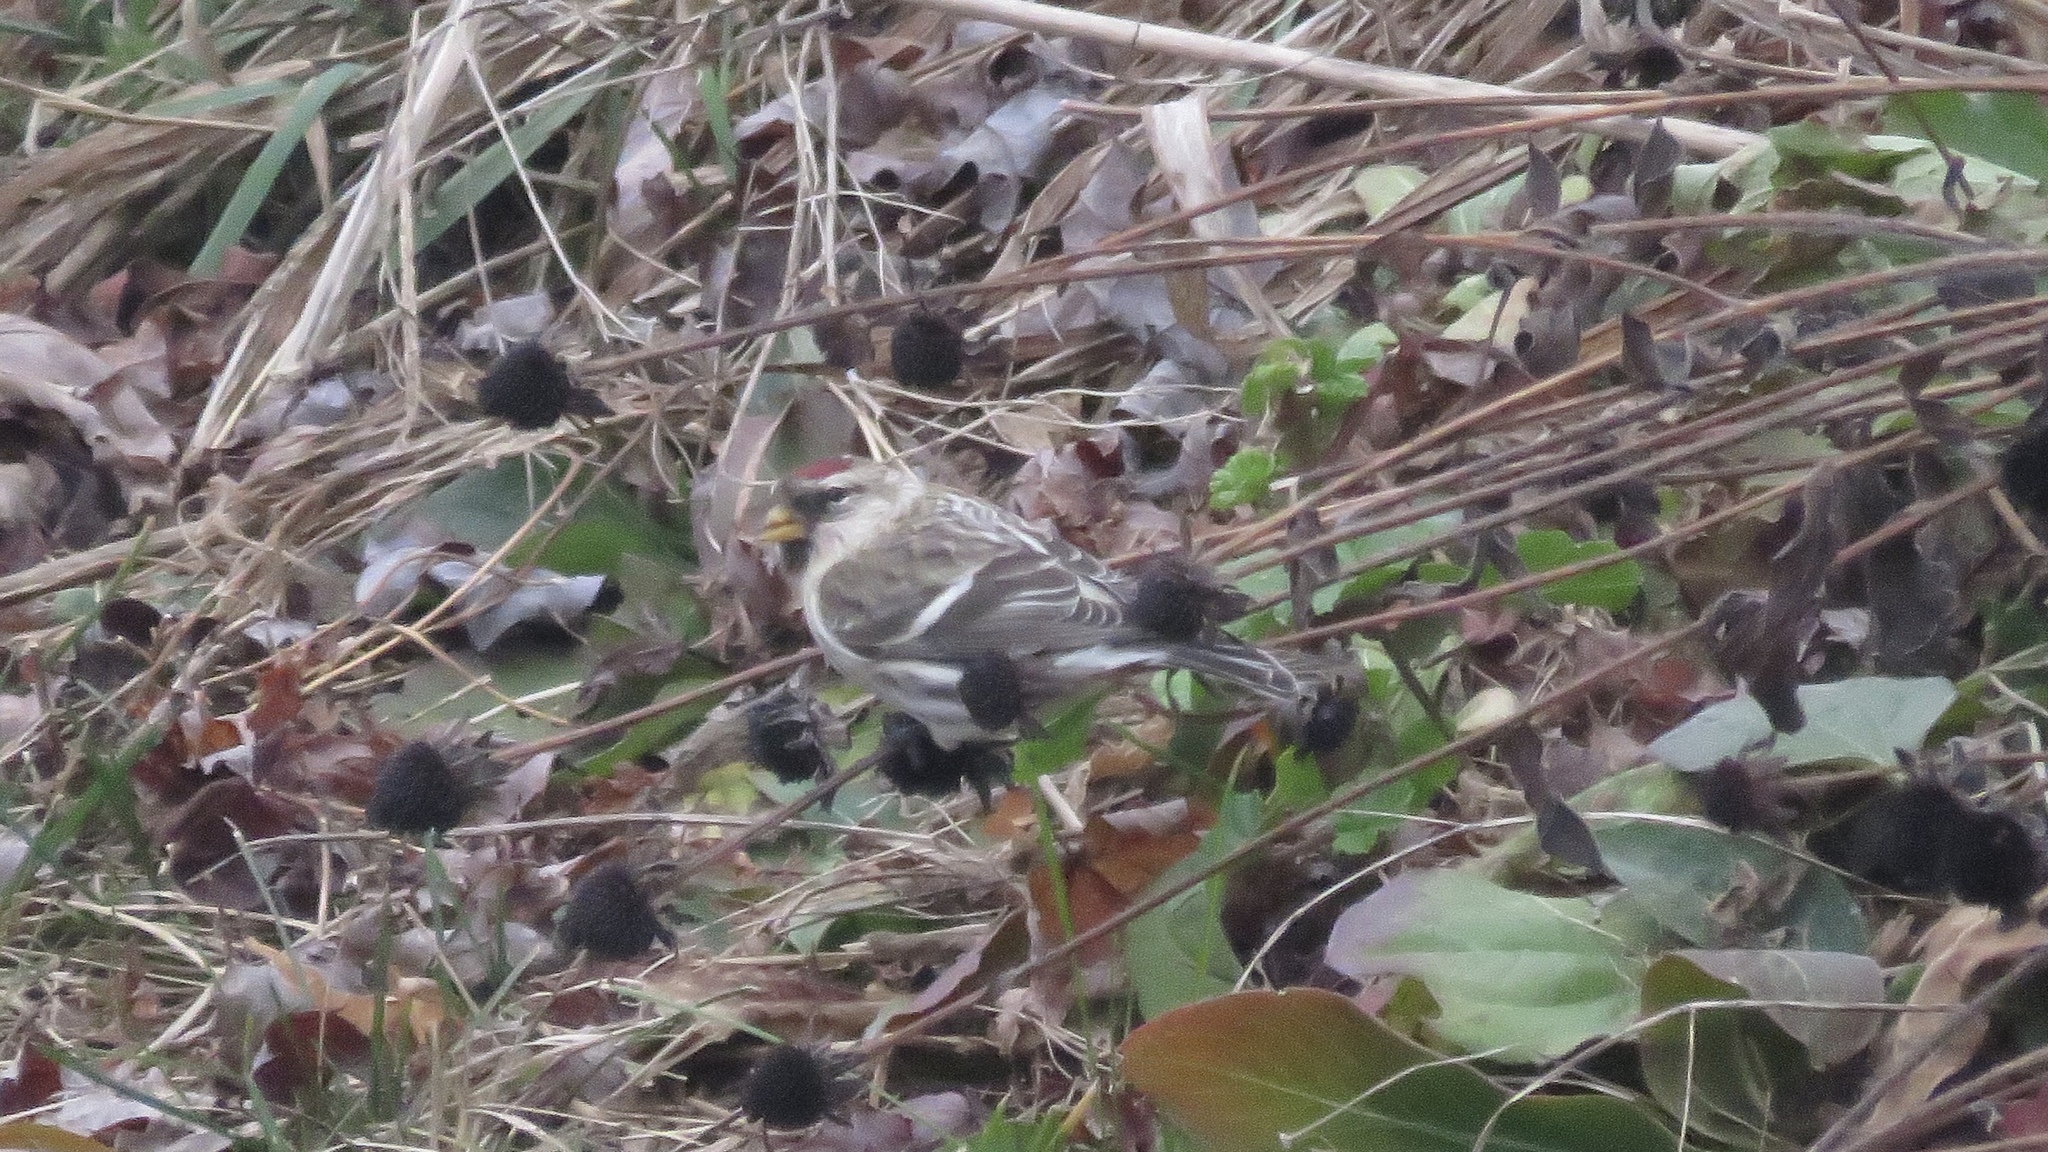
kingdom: Animalia
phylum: Chordata
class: Aves
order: Passeriformes
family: Fringillidae
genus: Acanthis
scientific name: Acanthis flammea
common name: Common redpoll
